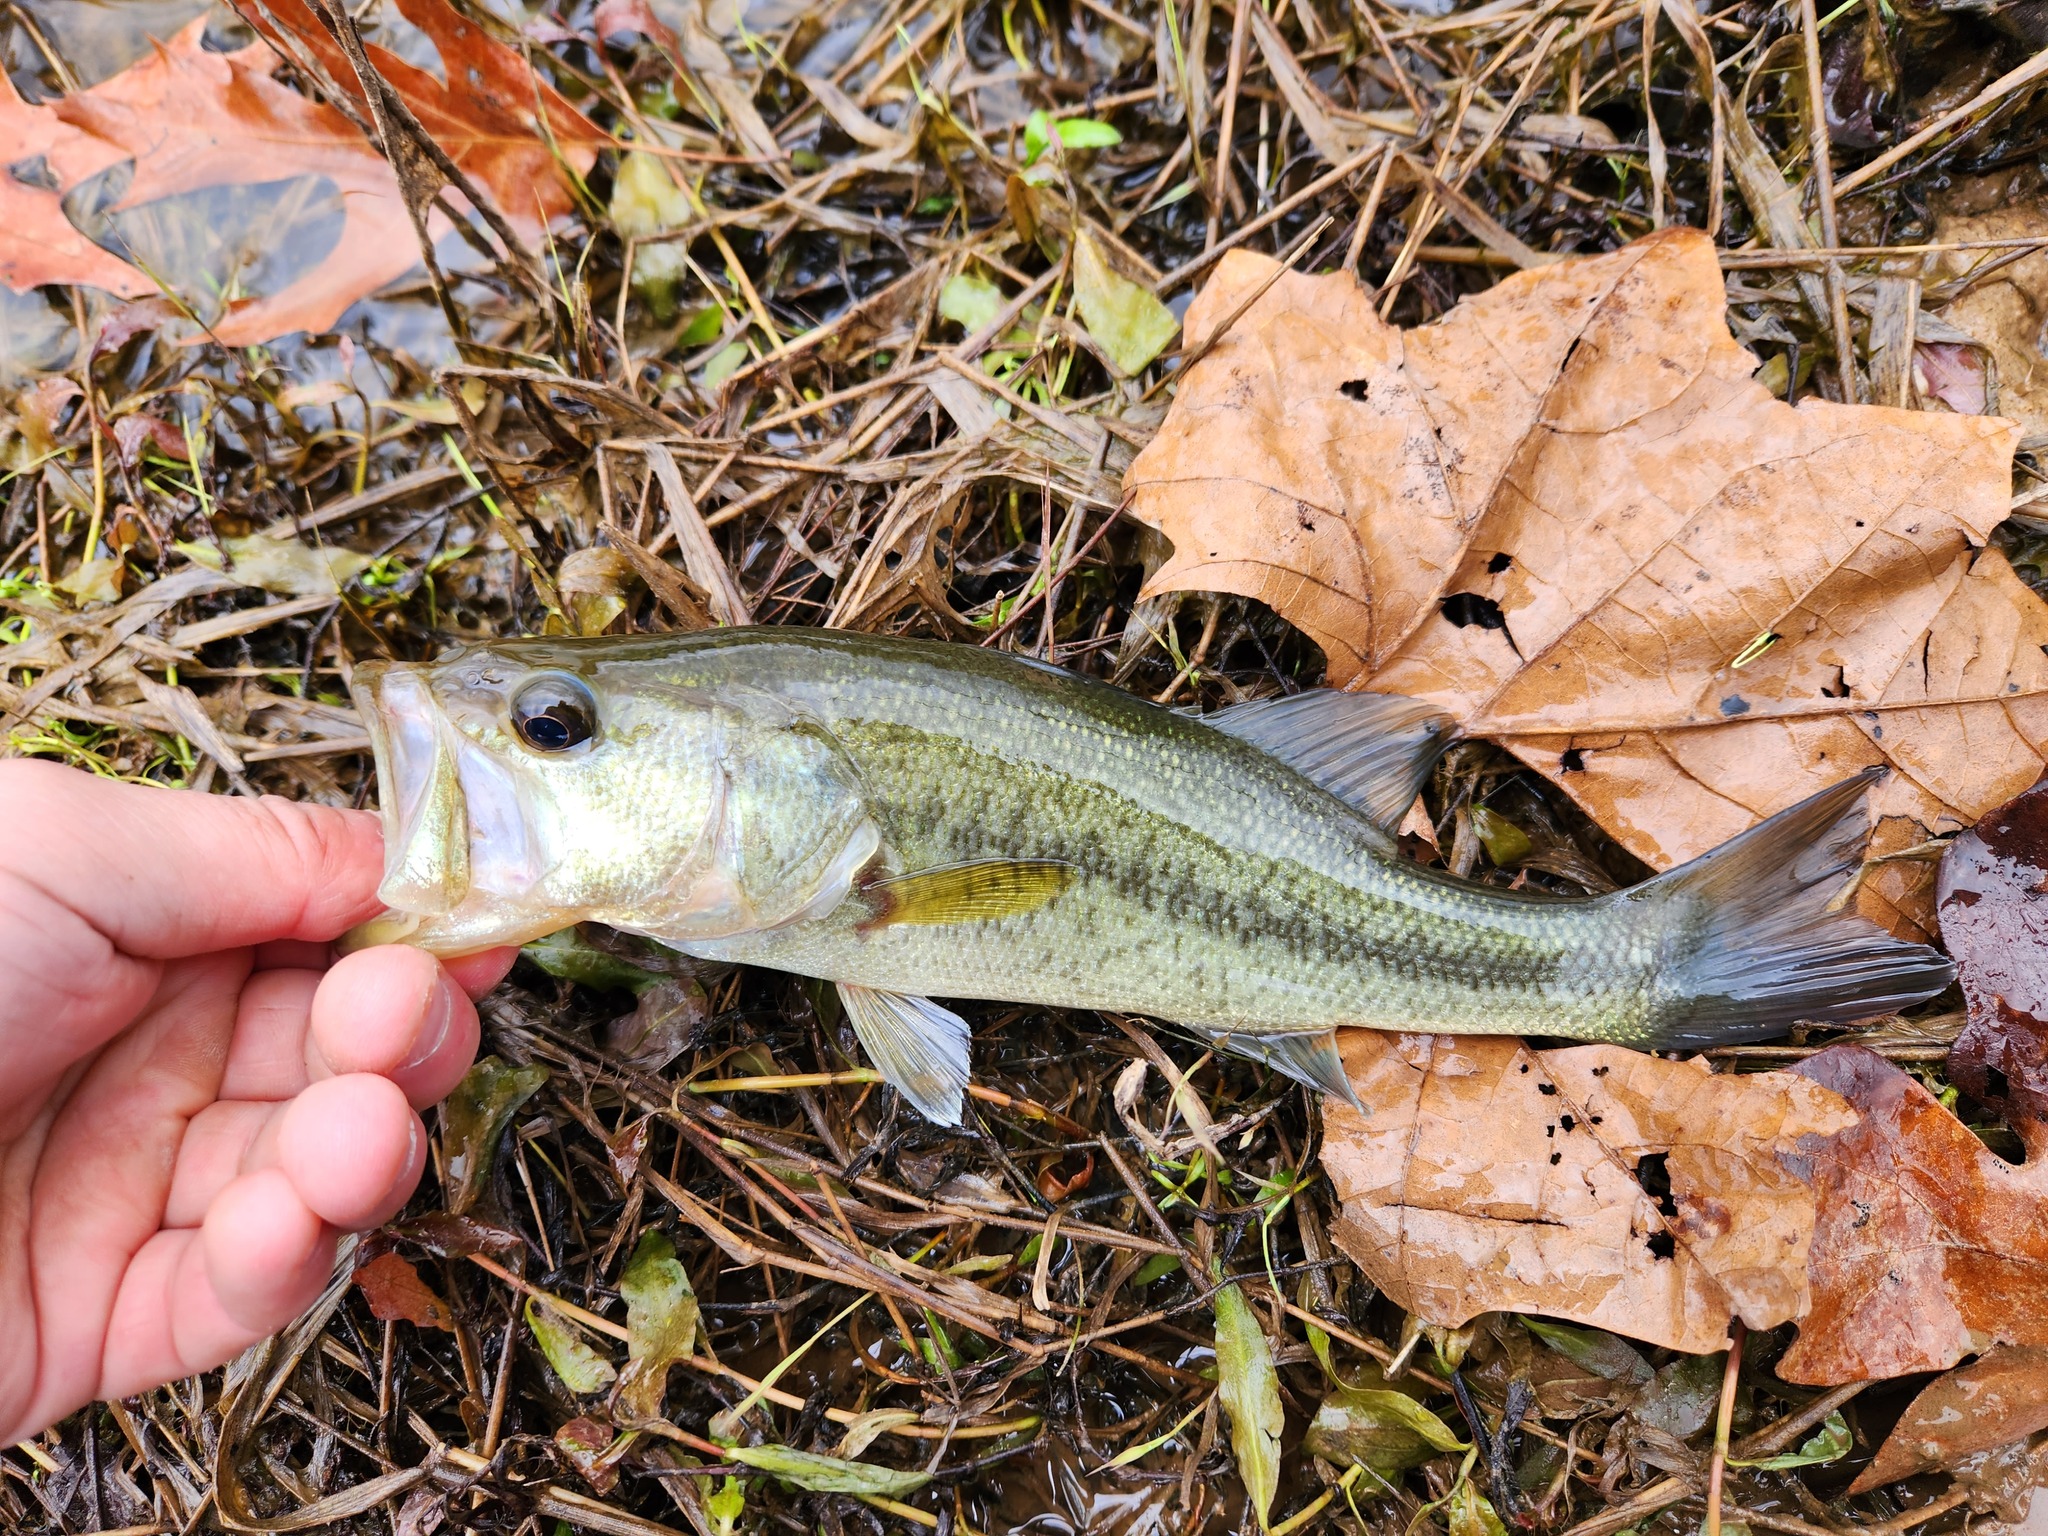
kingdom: Animalia
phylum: Chordata
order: Perciformes
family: Centrarchidae
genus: Micropterus
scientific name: Micropterus
